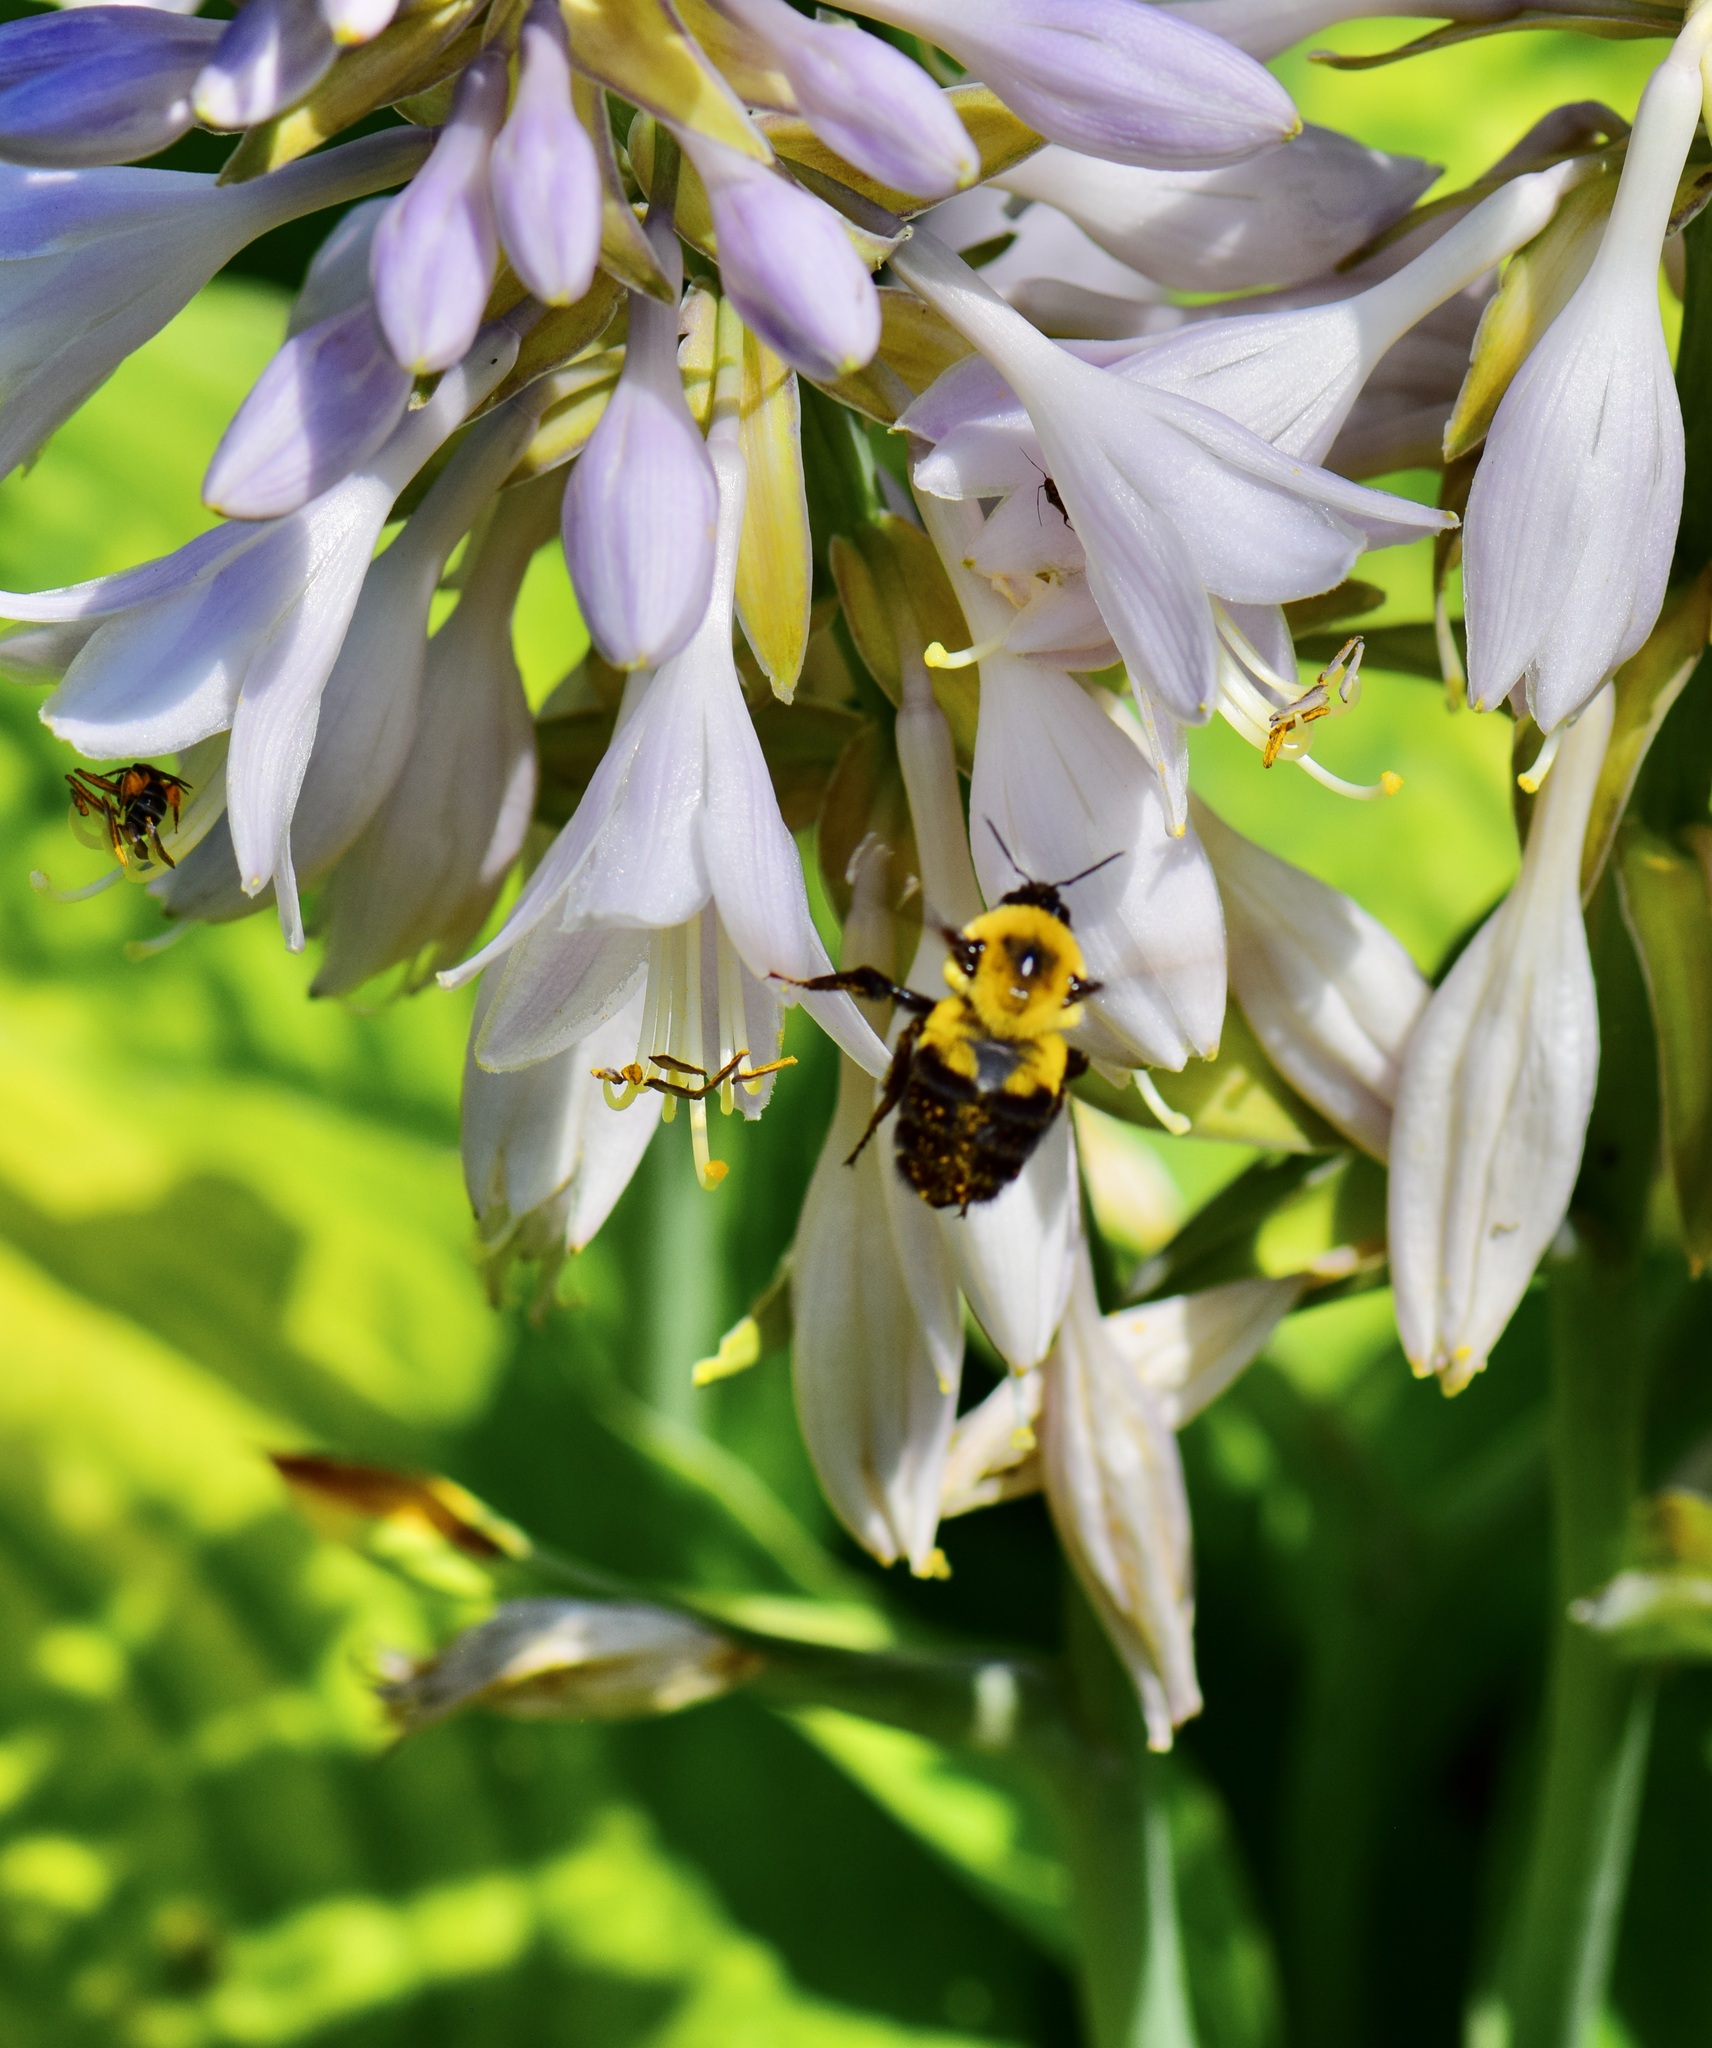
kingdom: Animalia
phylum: Arthropoda
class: Insecta
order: Hymenoptera
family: Apidae
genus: Bombus
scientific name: Bombus griseocollis
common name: Brown-belted bumble bee
